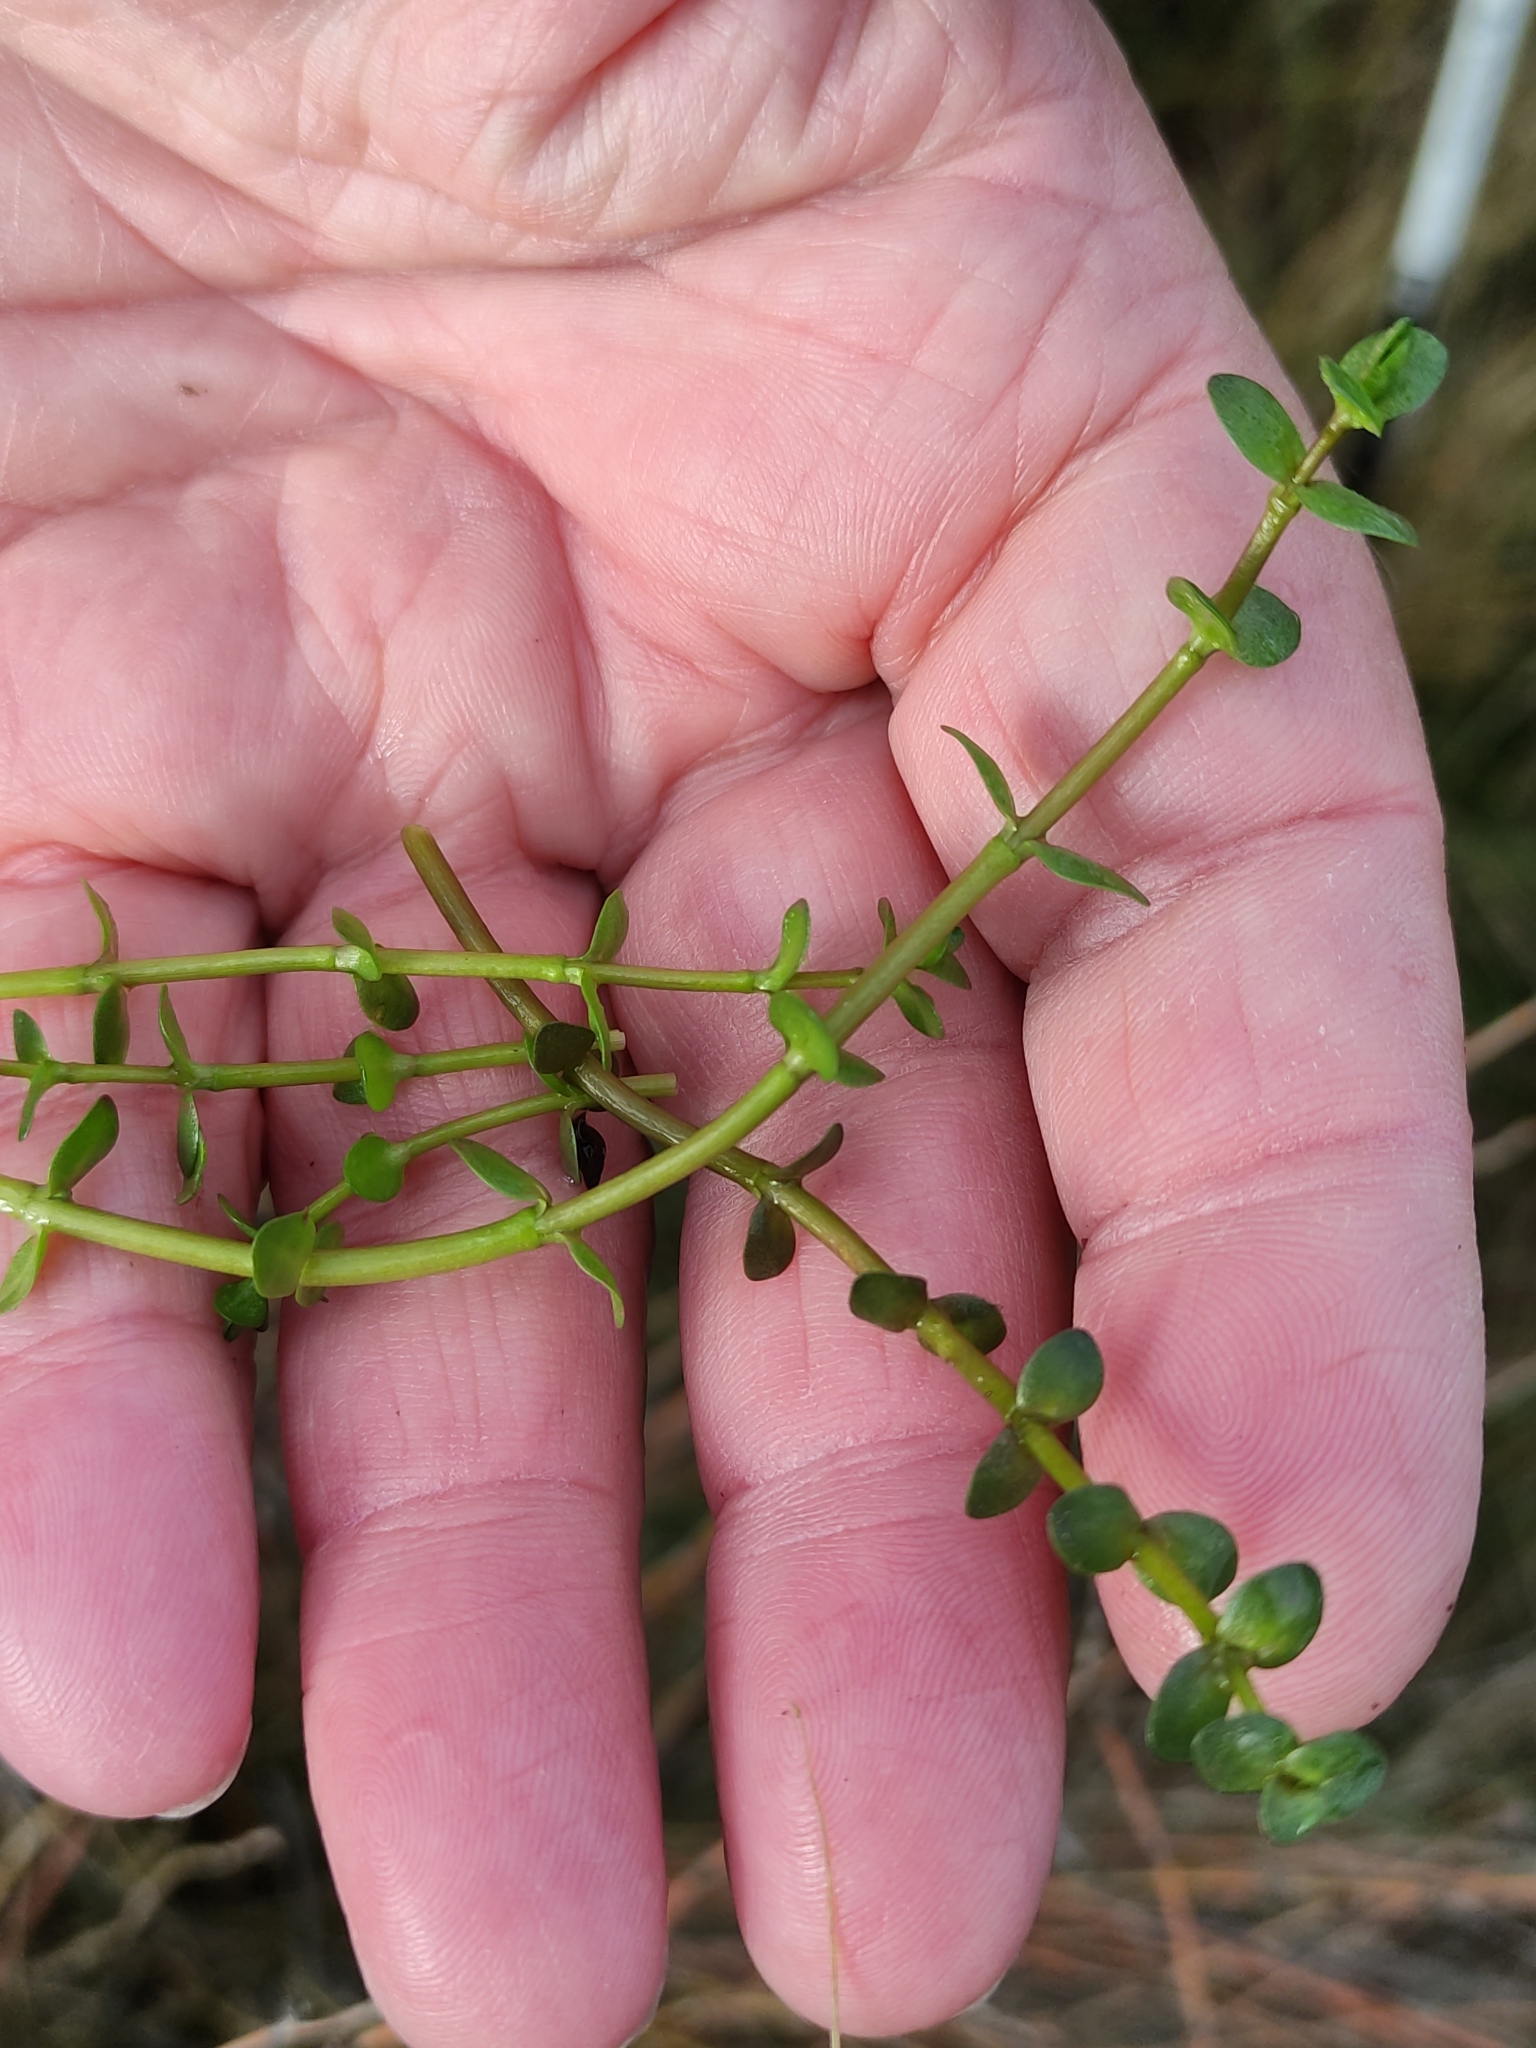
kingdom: Plantae
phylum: Tracheophyta
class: Magnoliopsida
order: Lamiales
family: Phrymaceae
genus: Thyridia
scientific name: Thyridia repens
